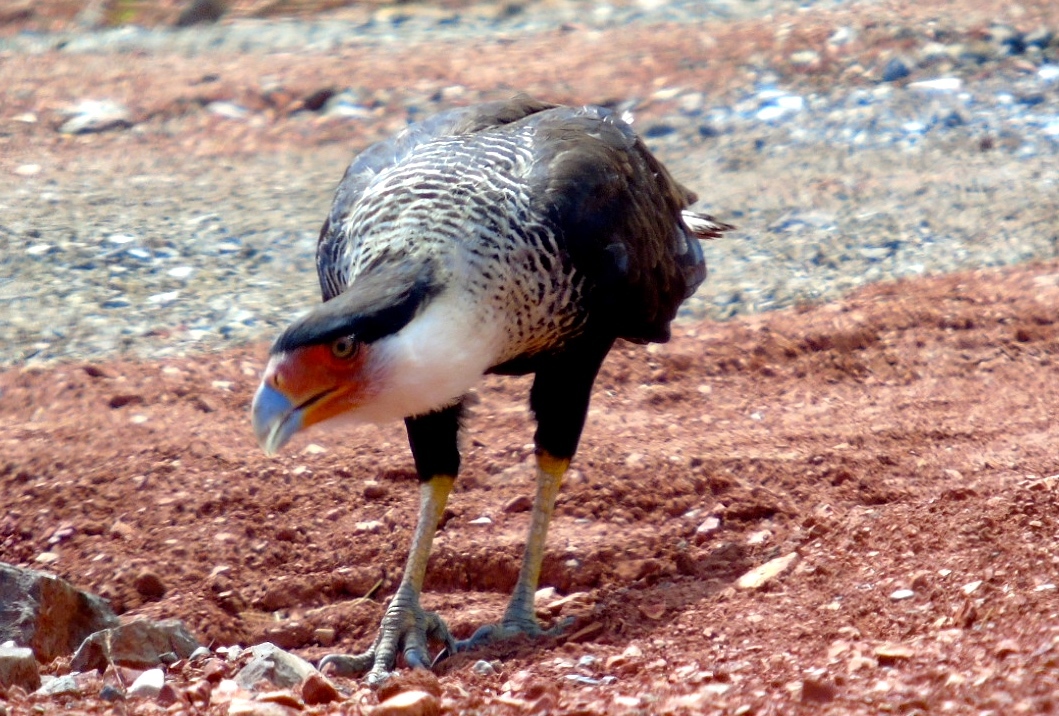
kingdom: Animalia
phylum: Chordata
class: Aves
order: Falconiformes
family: Falconidae
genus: Caracara
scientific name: Caracara plancus
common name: Southern caracara
